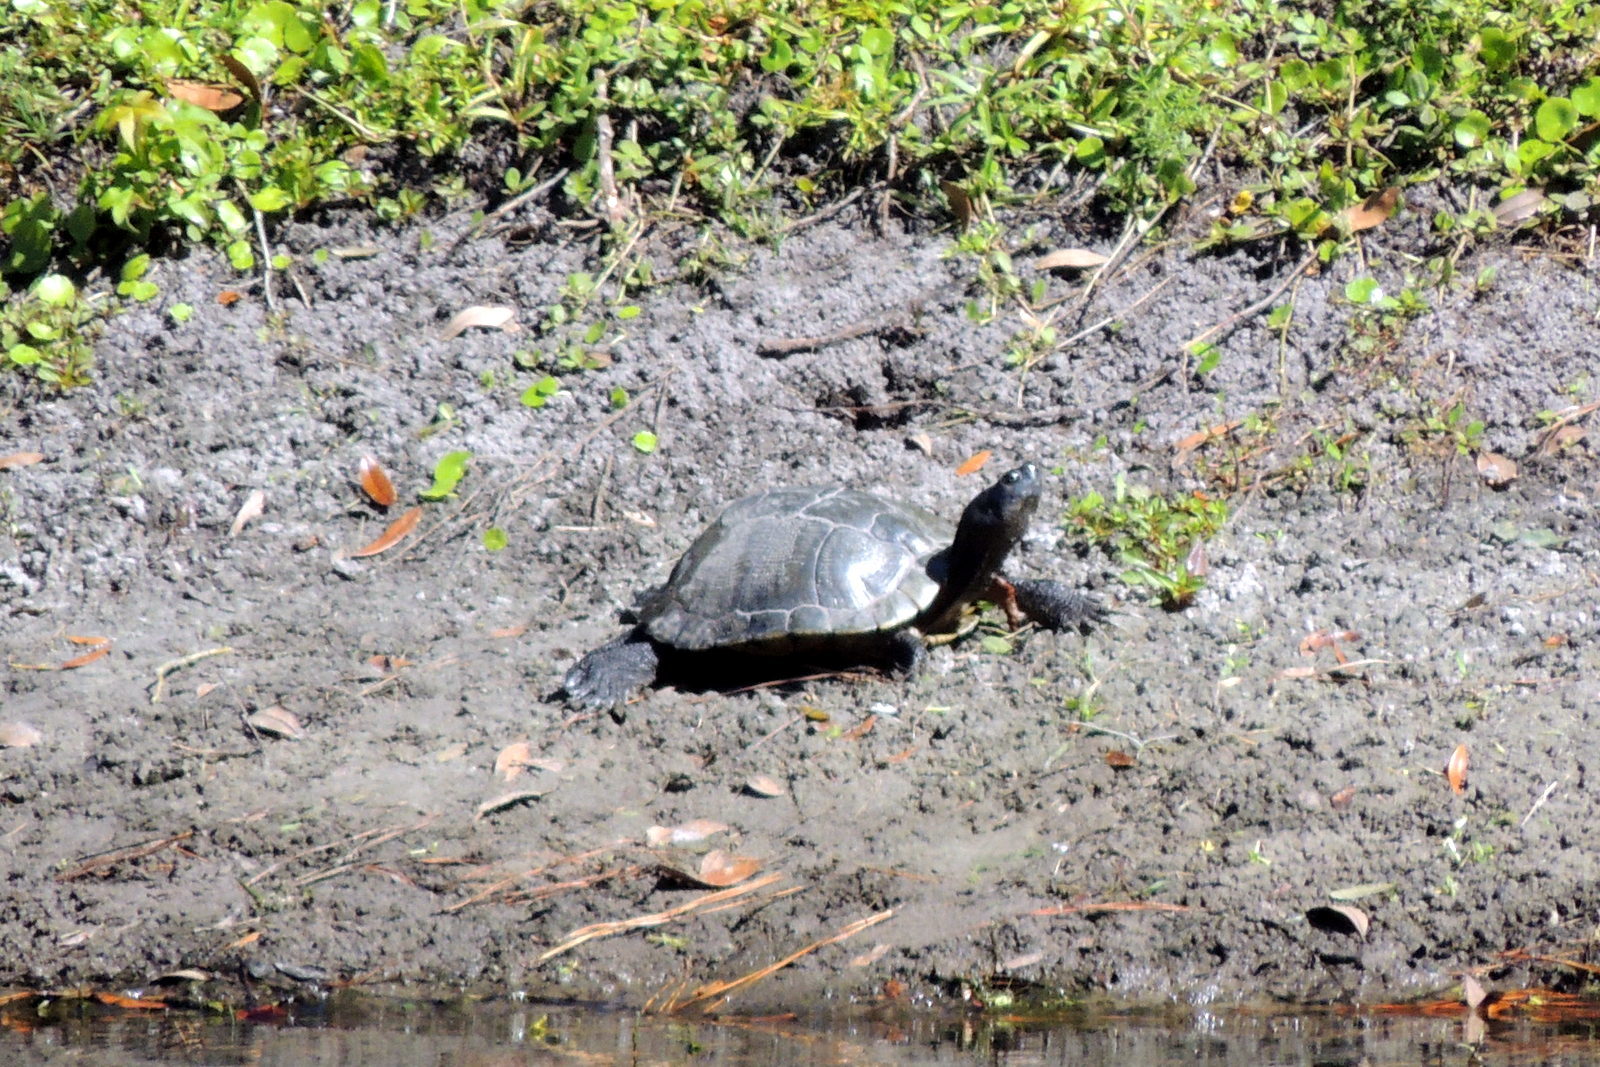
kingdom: Animalia
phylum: Chordata
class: Testudines
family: Emydidae
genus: Trachemys
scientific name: Trachemys scripta
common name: Slider
